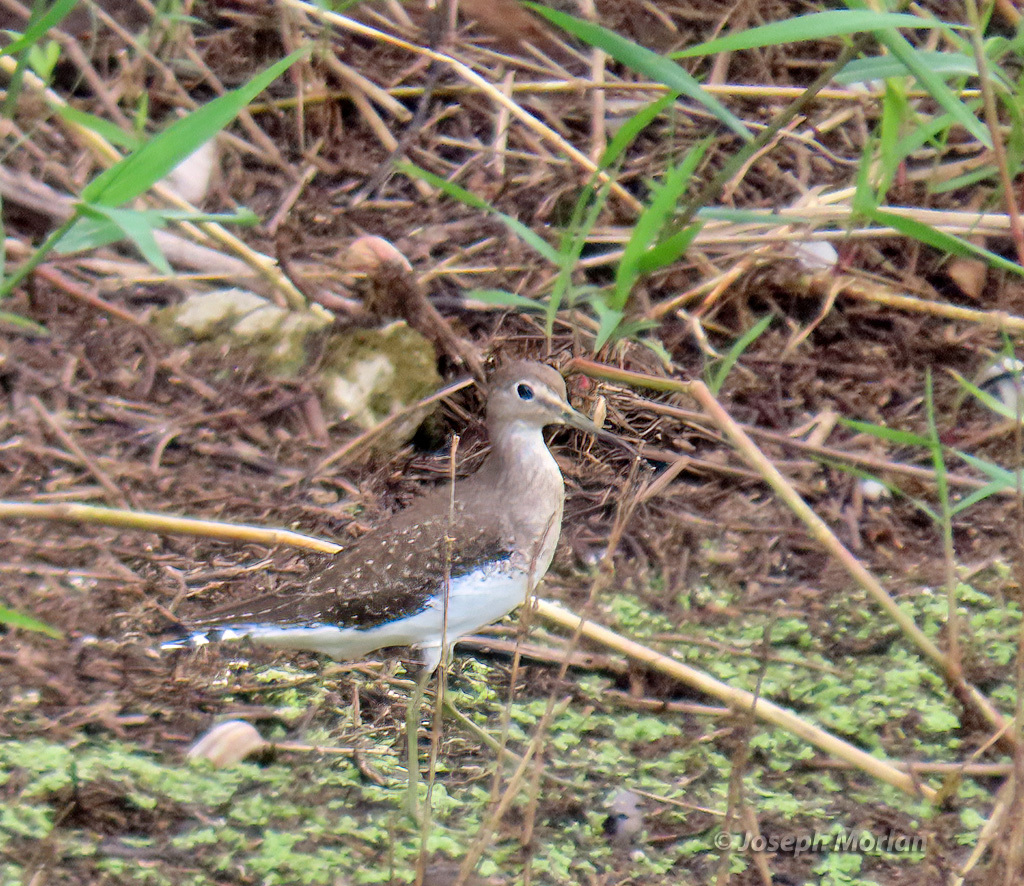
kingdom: Animalia
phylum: Chordata
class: Aves
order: Charadriiformes
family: Scolopacidae
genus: Tringa
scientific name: Tringa solitaria
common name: Solitary sandpiper
